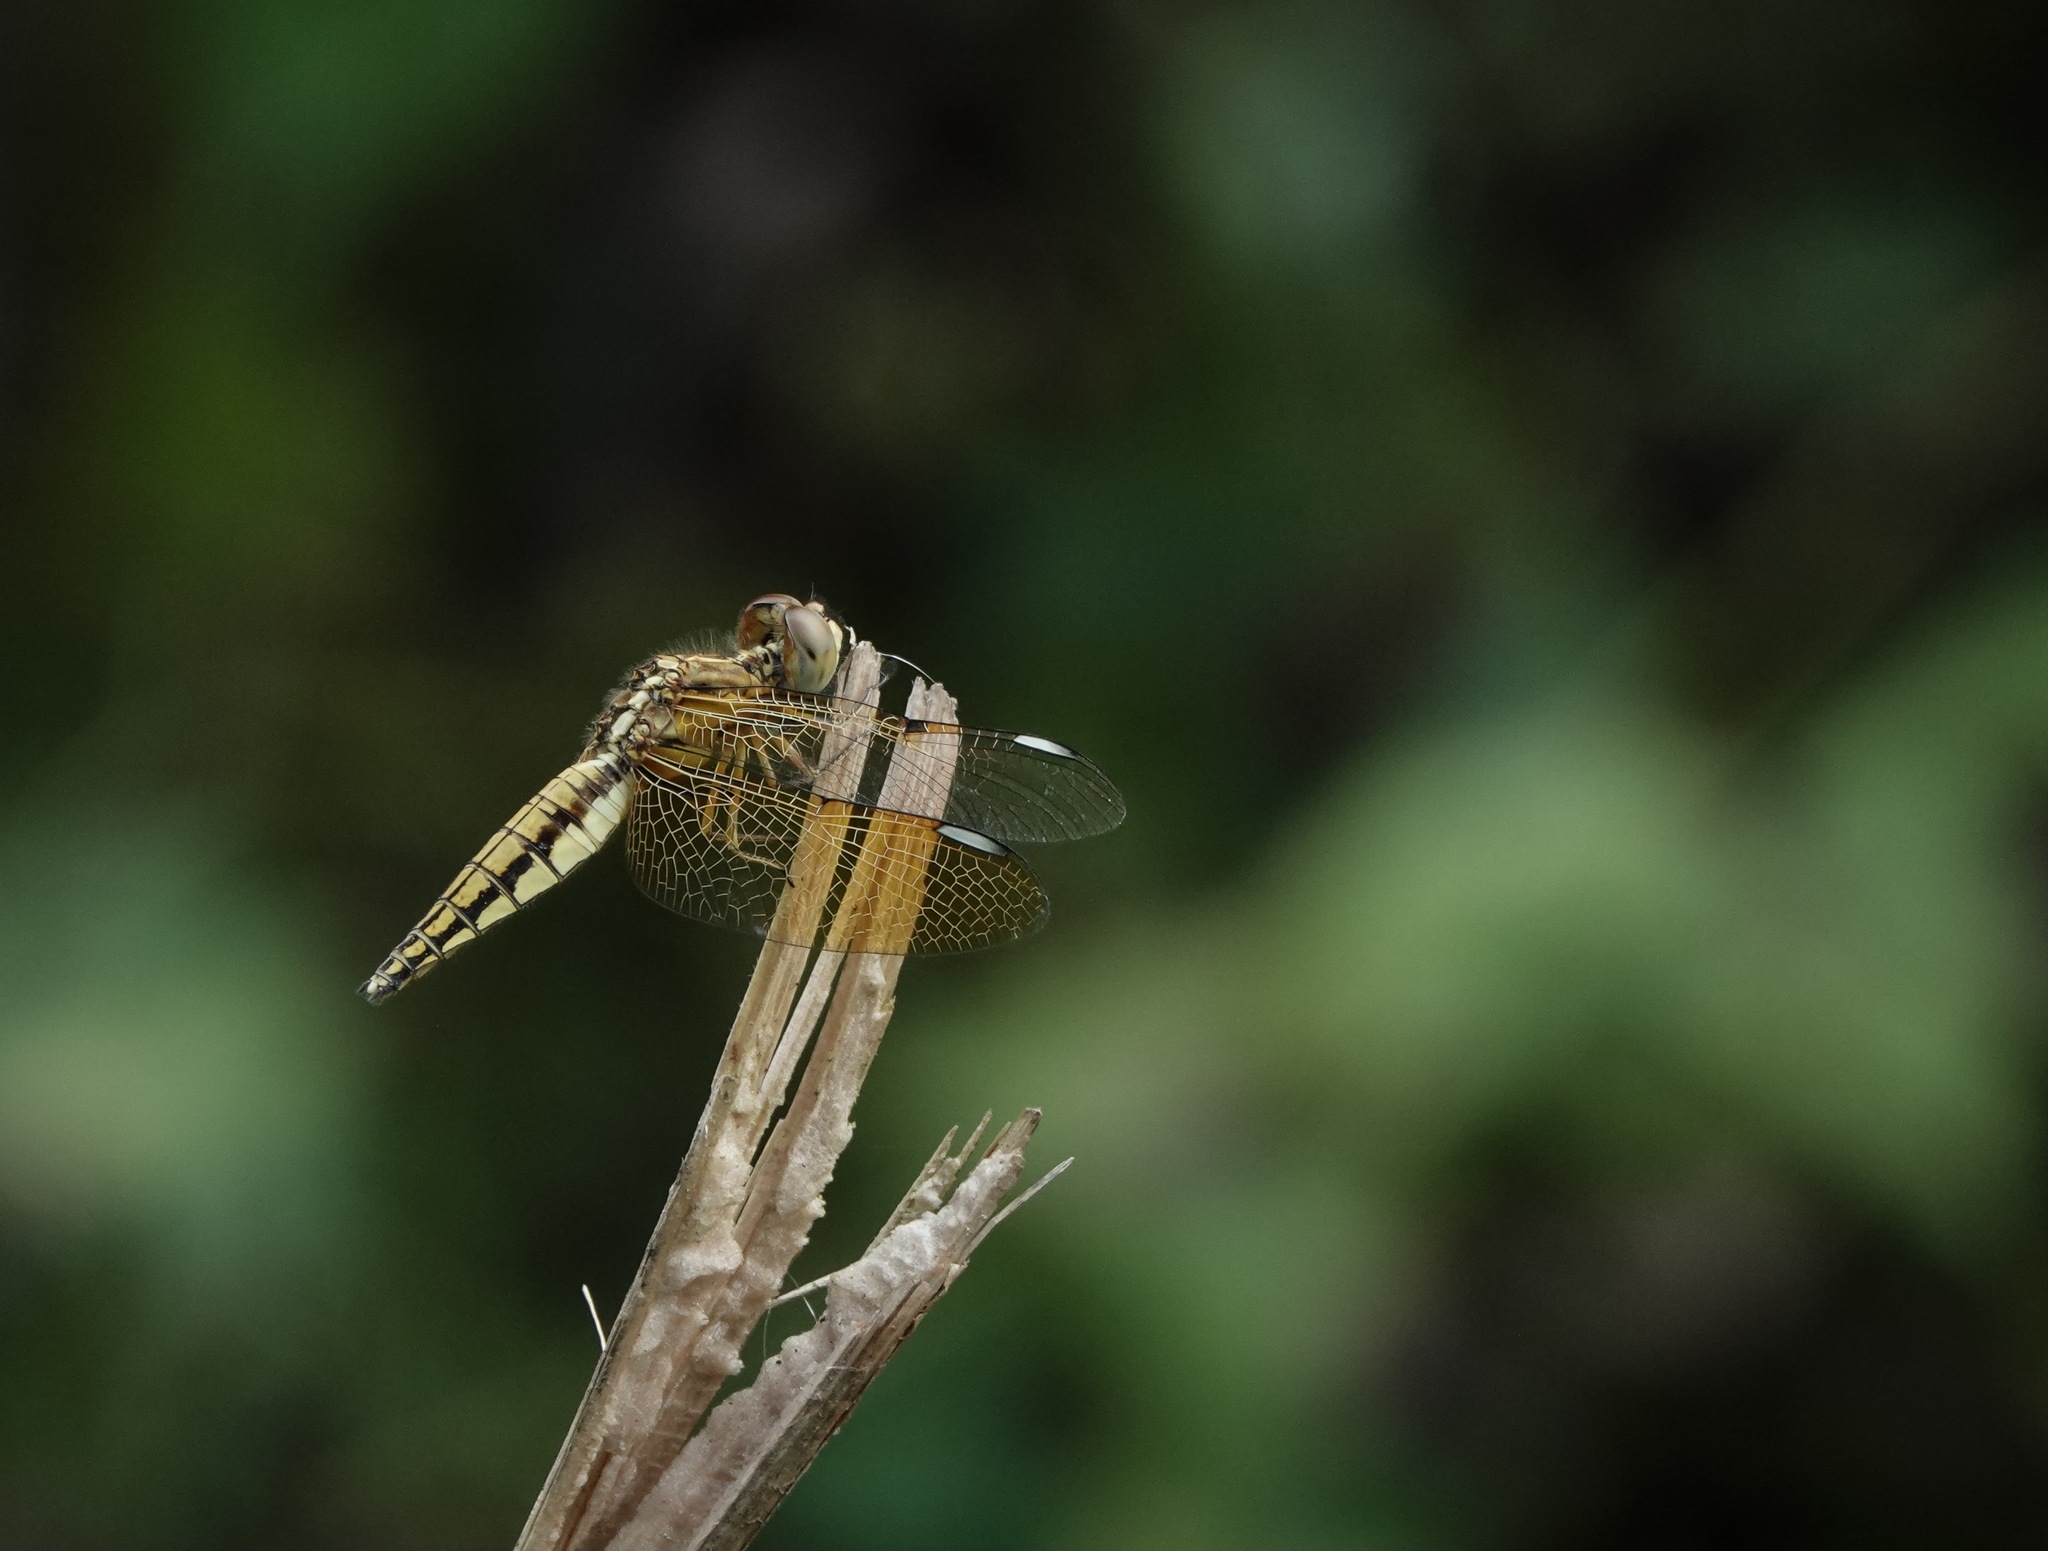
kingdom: Animalia
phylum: Arthropoda
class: Insecta
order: Odonata
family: Libellulidae
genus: Palpopleura
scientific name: Palpopleura sexmaculata
